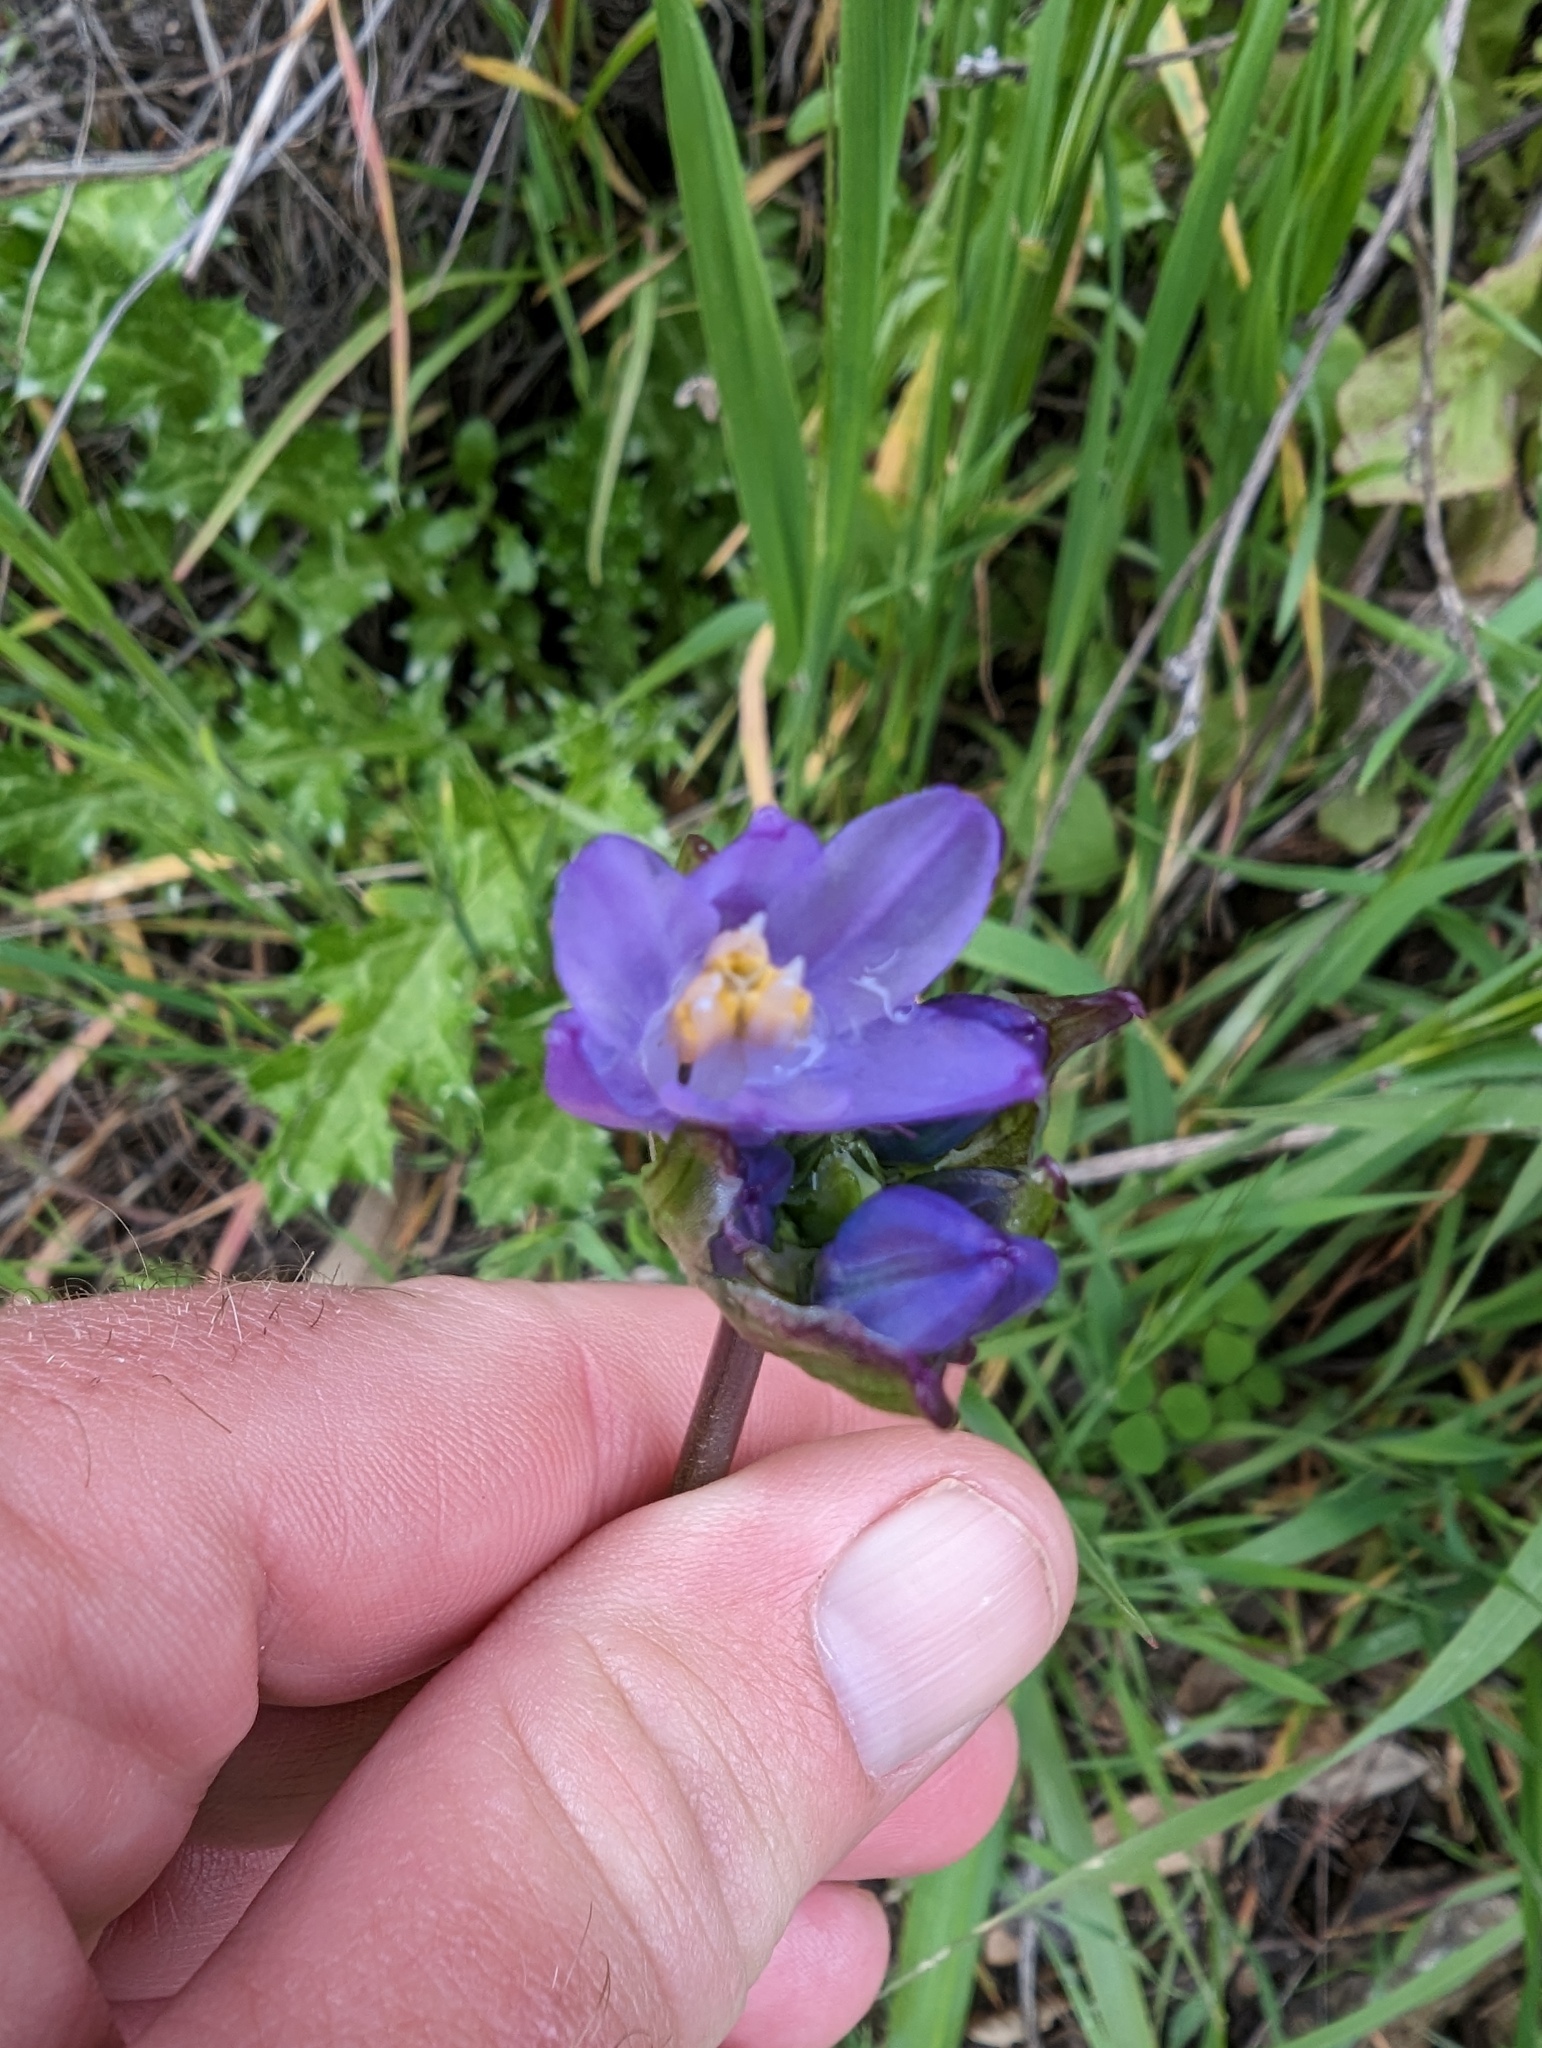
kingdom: Plantae
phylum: Tracheophyta
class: Liliopsida
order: Asparagales
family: Asparagaceae
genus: Dipterostemon
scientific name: Dipterostemon capitatus
